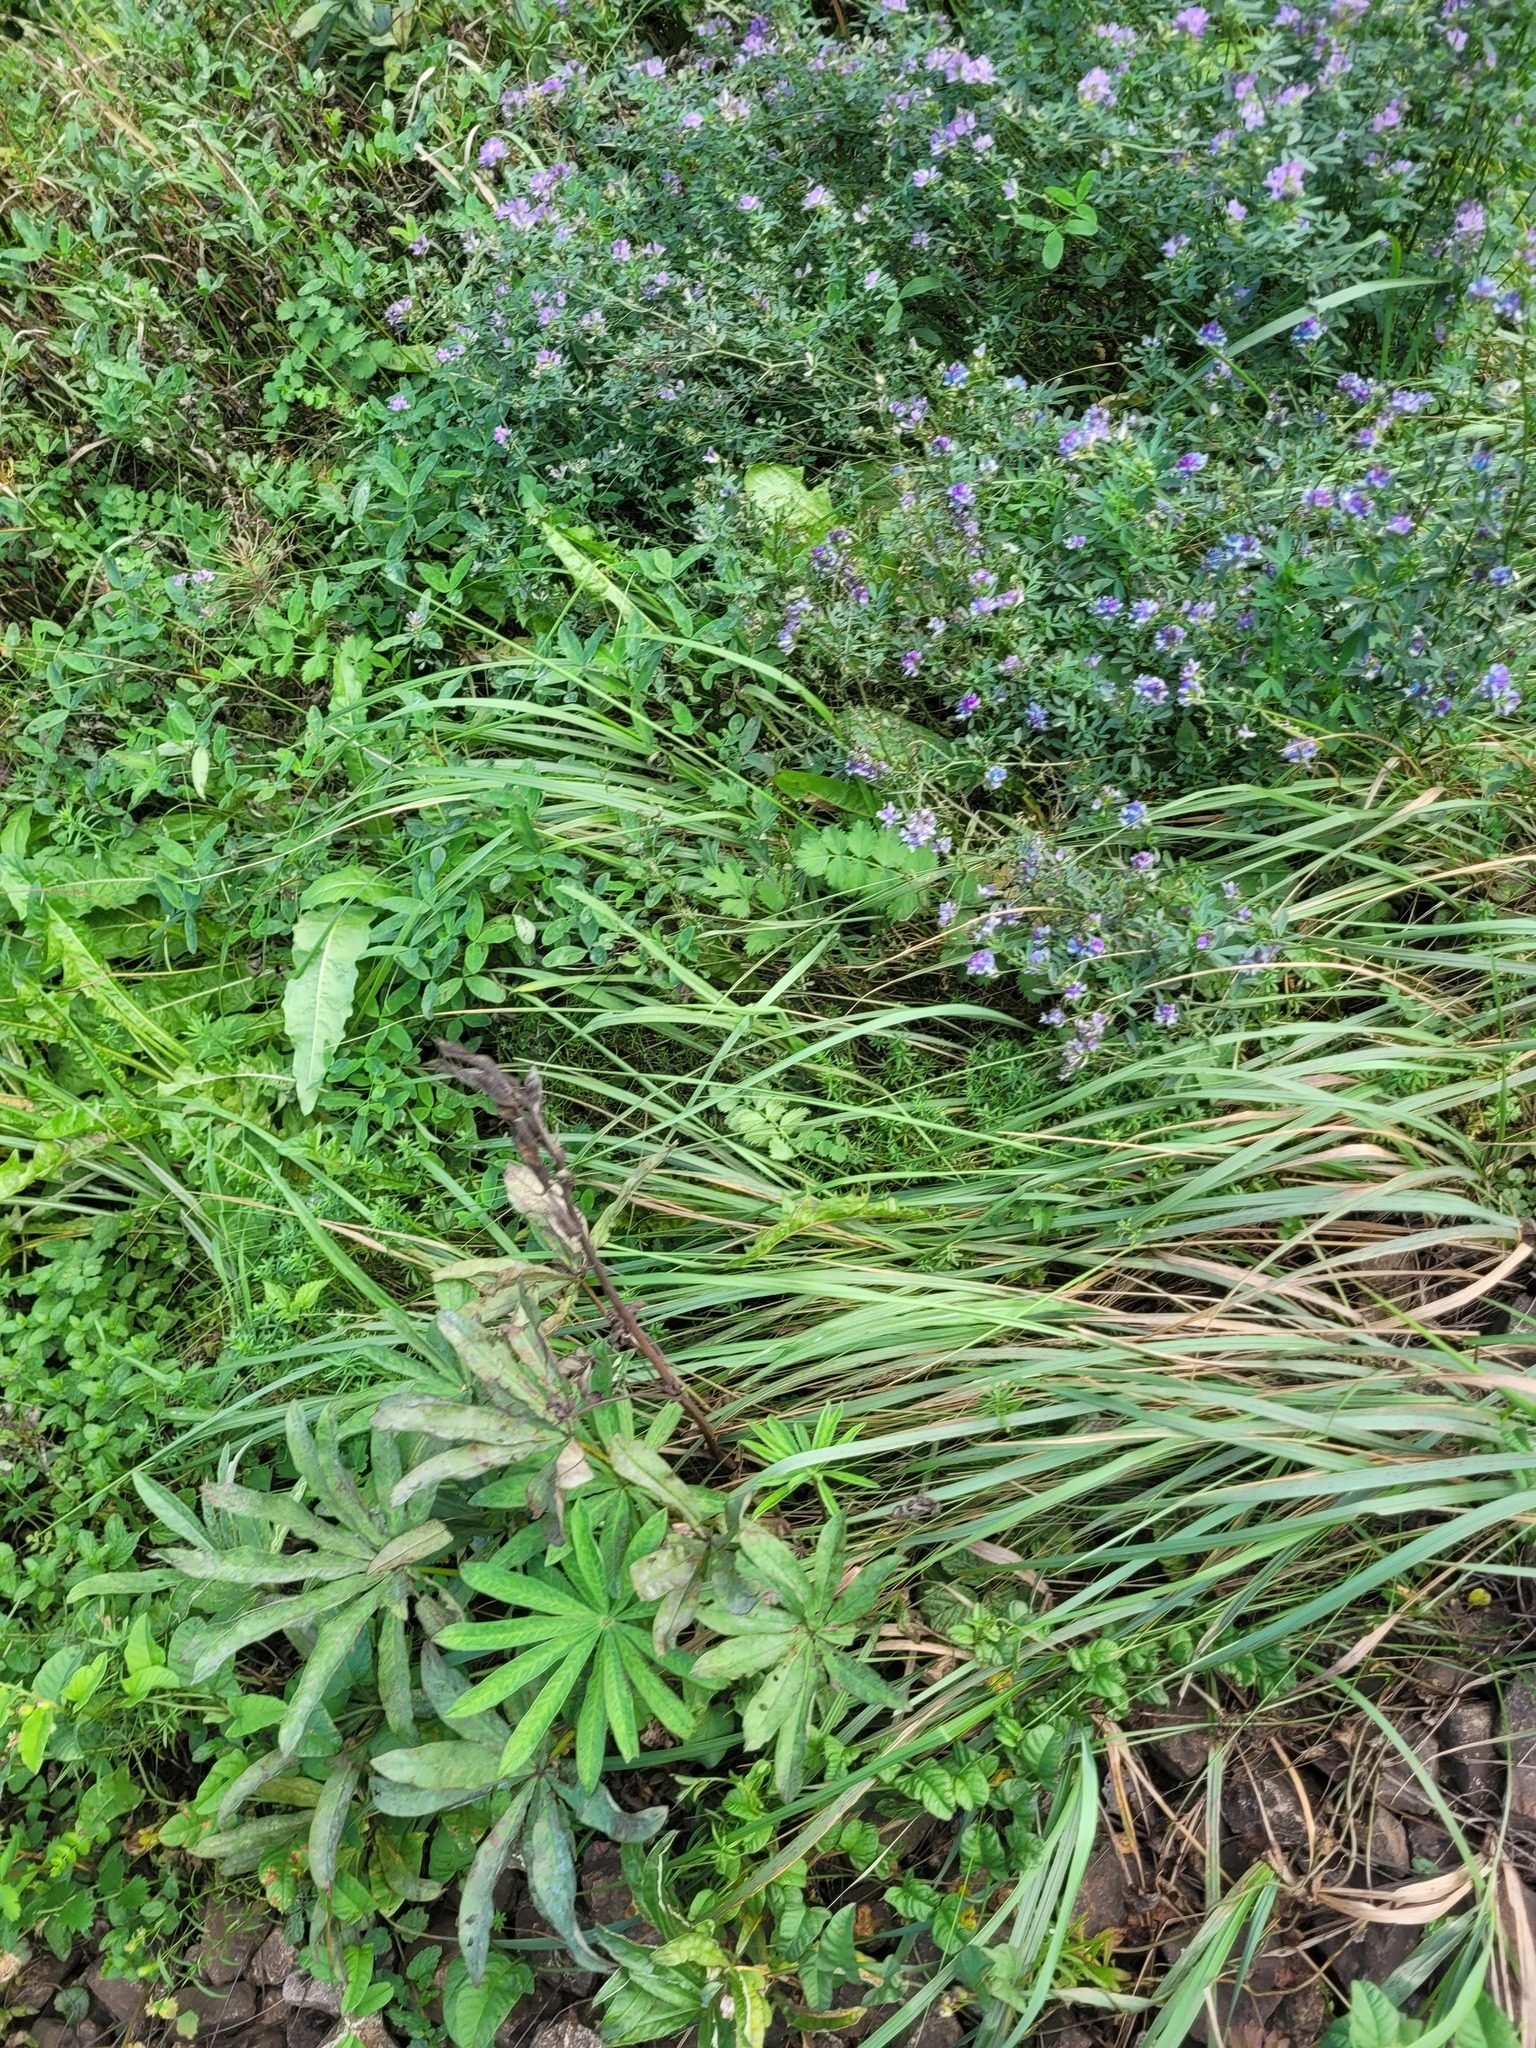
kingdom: Plantae
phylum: Tracheophyta
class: Magnoliopsida
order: Fabales
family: Fabaceae
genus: Lupinus
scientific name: Lupinus polyphyllus
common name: Garden lupin
